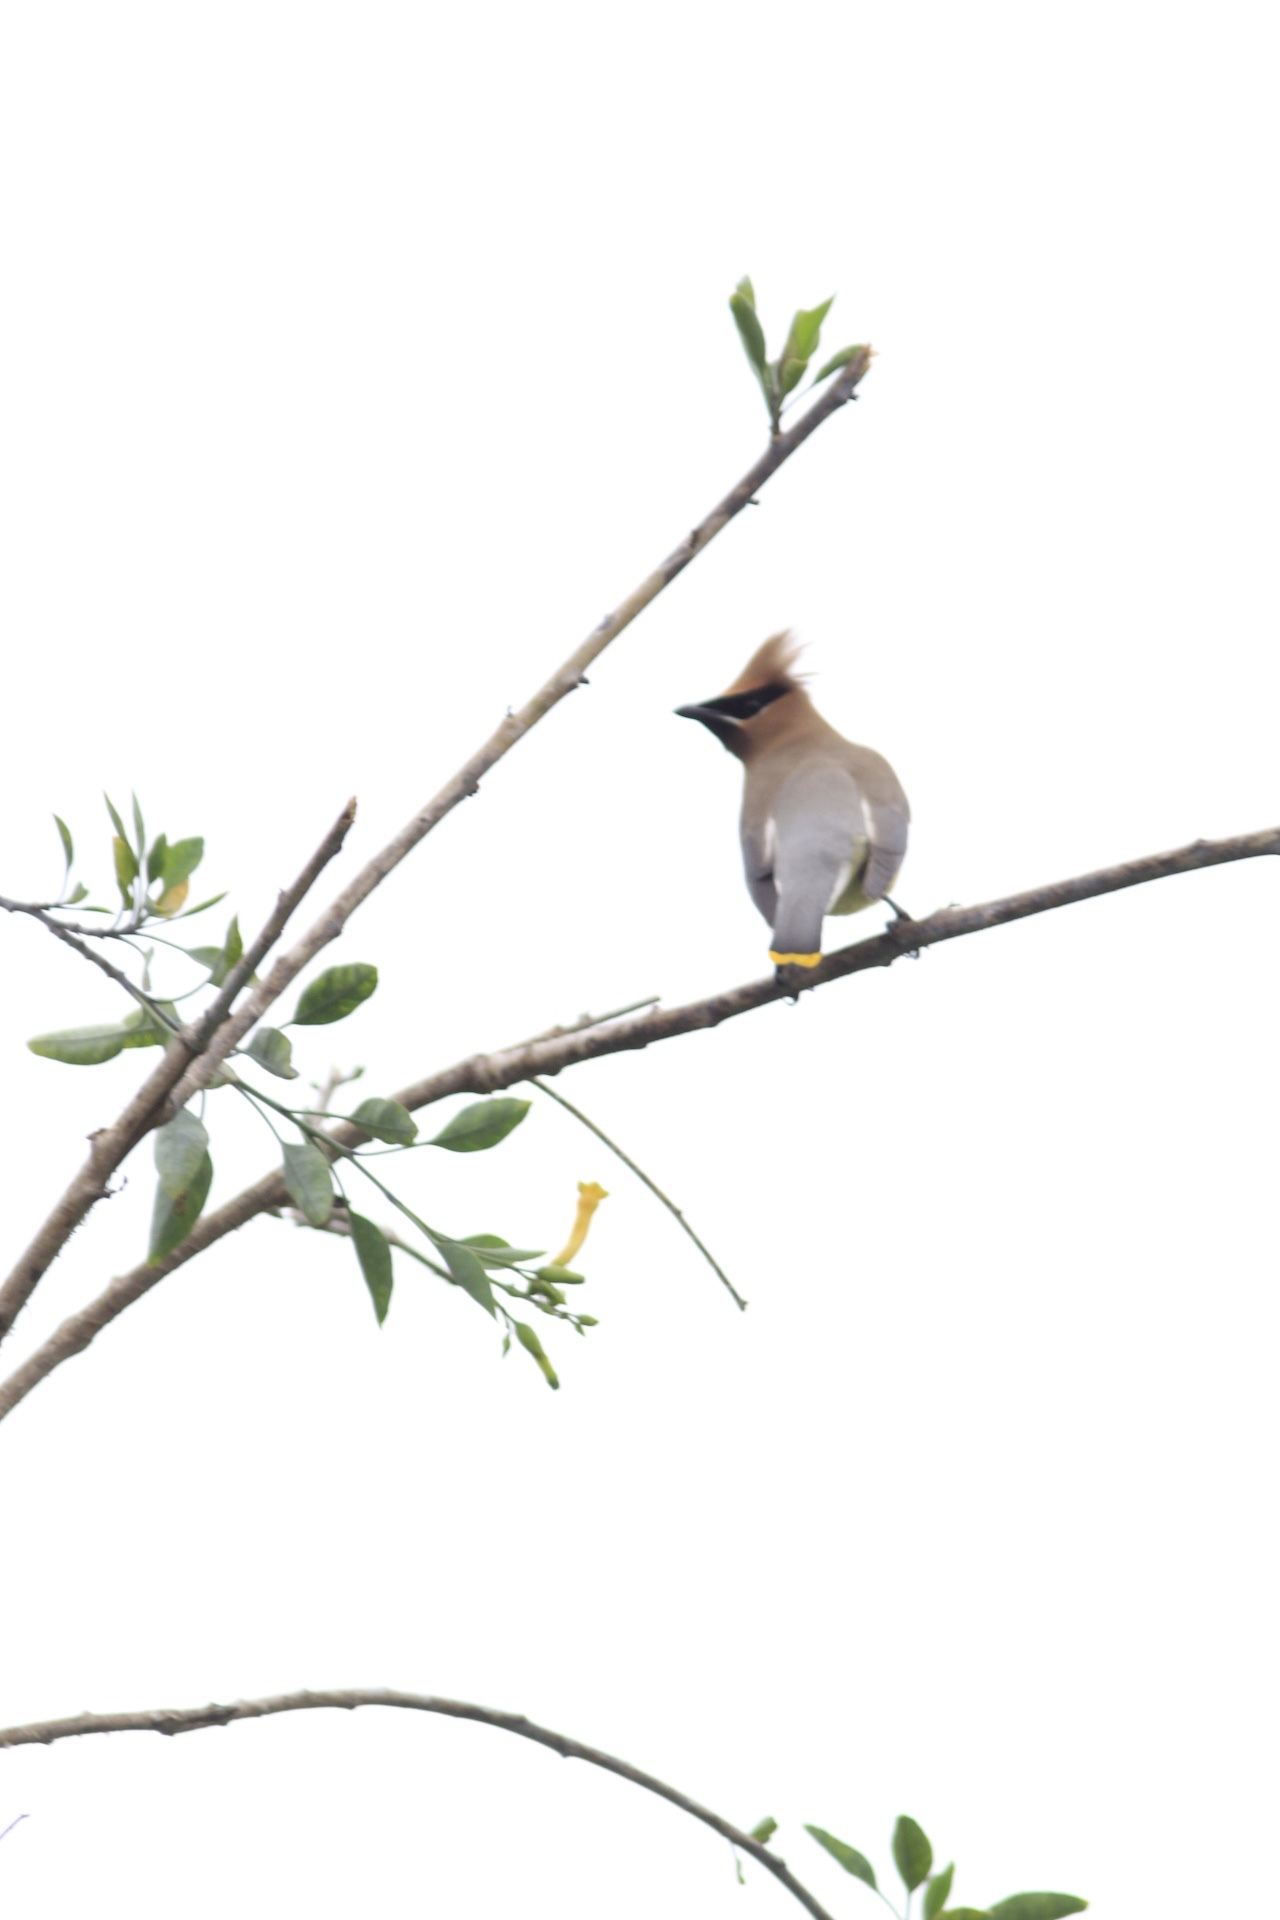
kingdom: Animalia
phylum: Chordata
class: Aves
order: Passeriformes
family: Bombycillidae
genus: Bombycilla
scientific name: Bombycilla cedrorum
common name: Cedar waxwing
